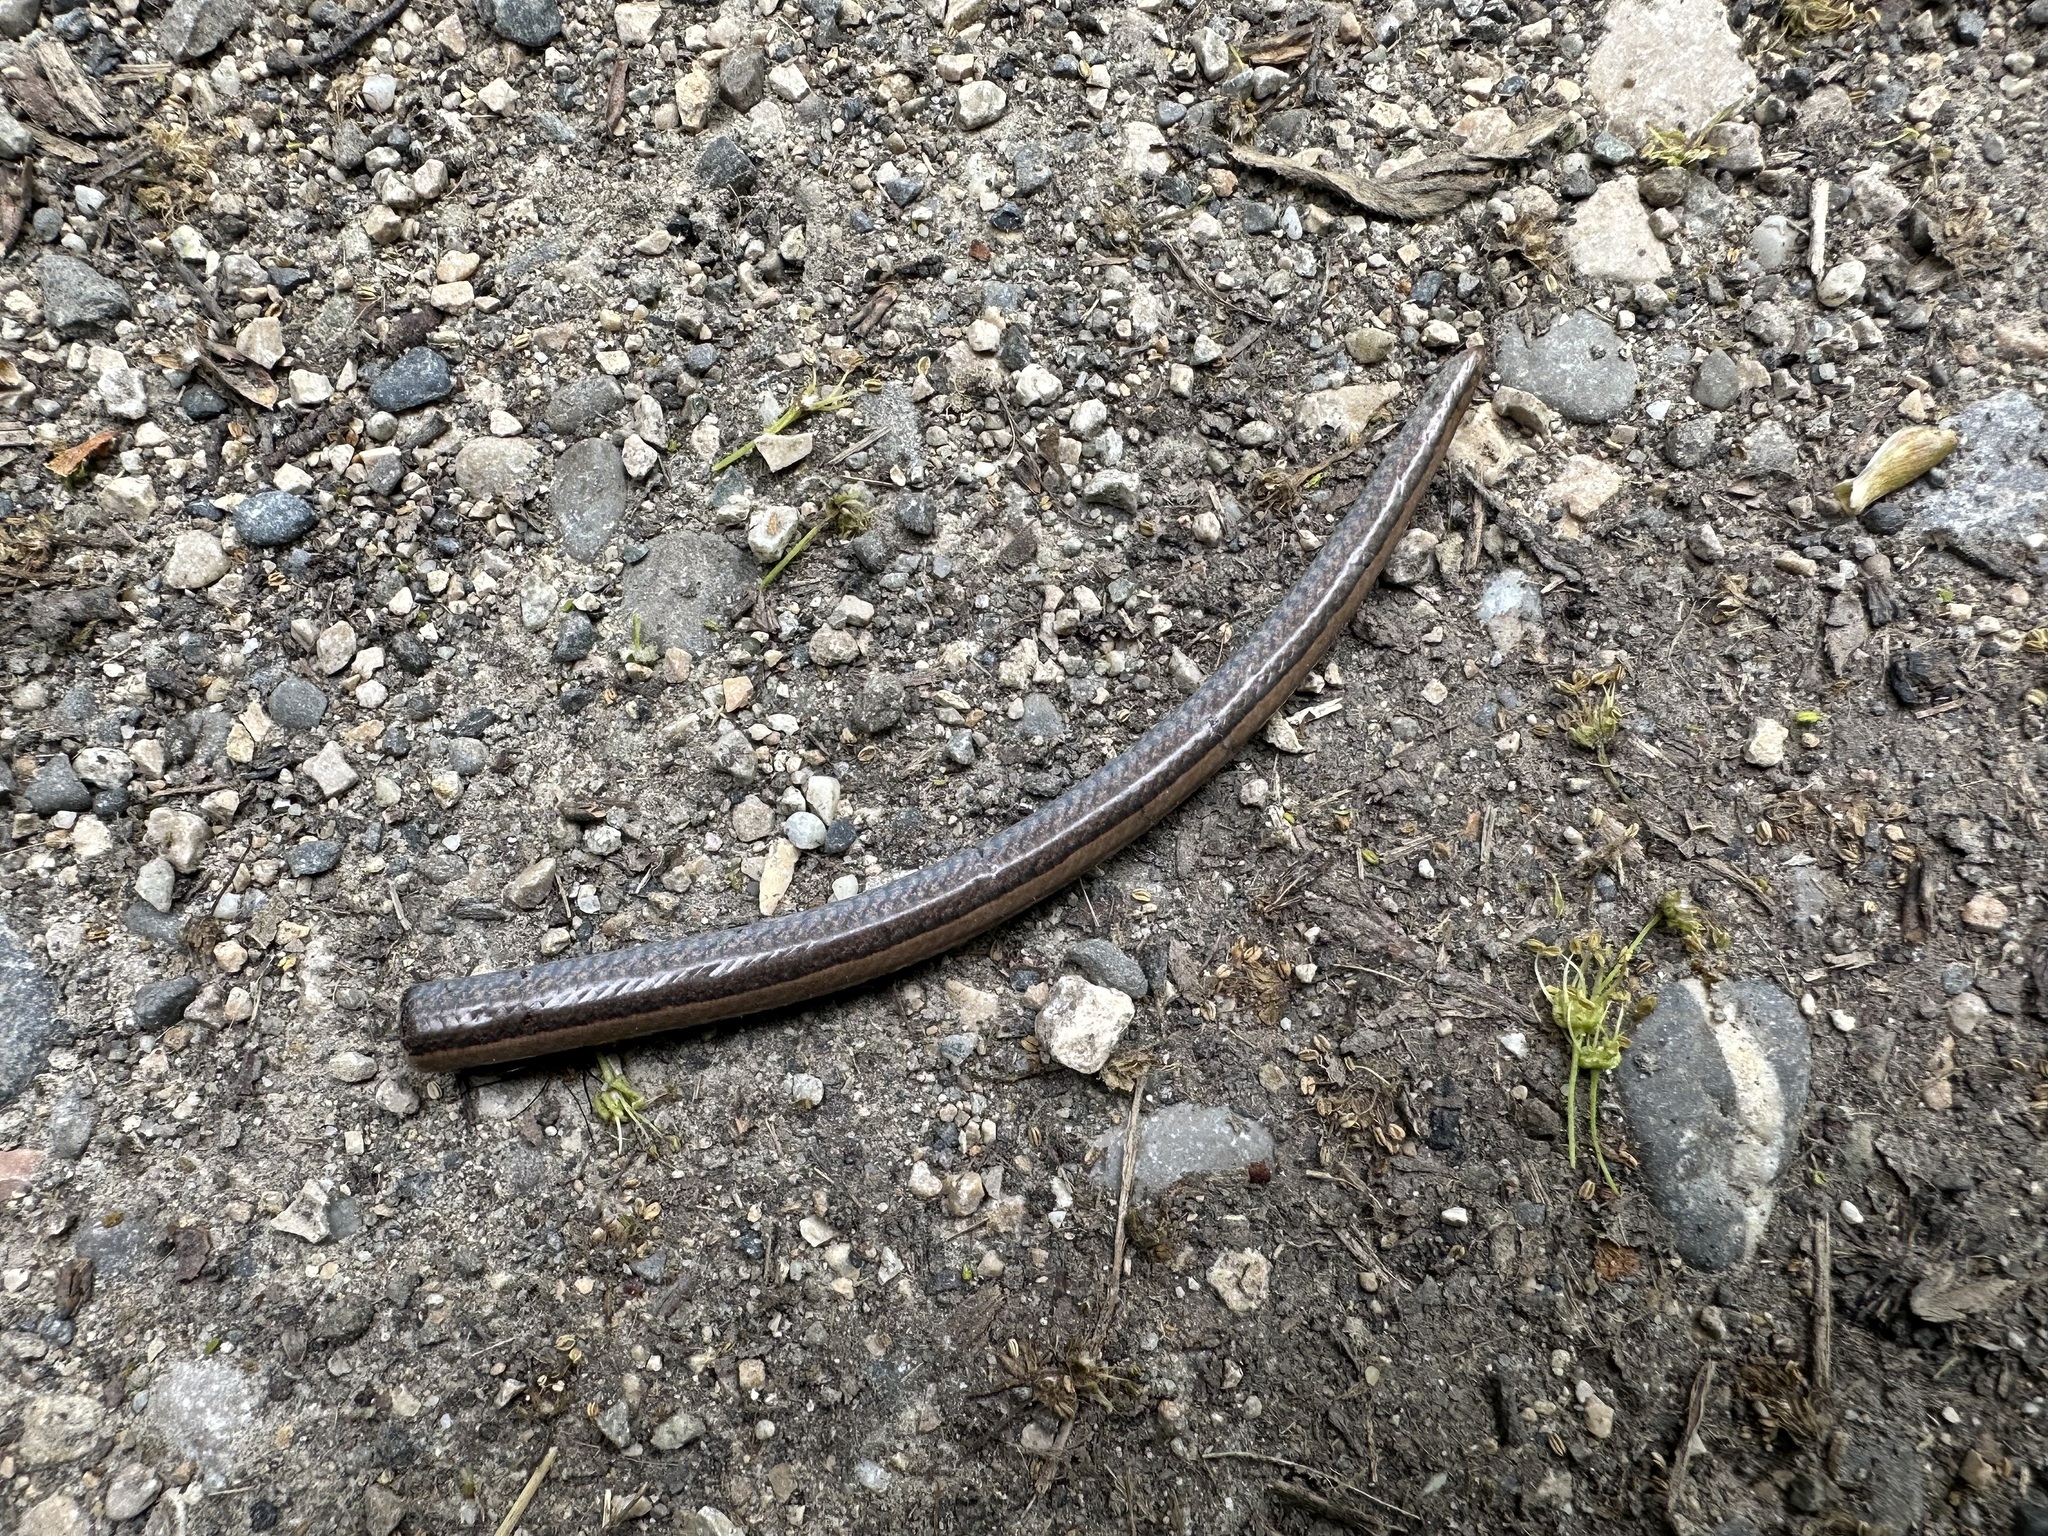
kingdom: Animalia
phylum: Chordata
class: Squamata
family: Anguidae
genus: Anguis
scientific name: Anguis fragilis
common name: Slow worm
